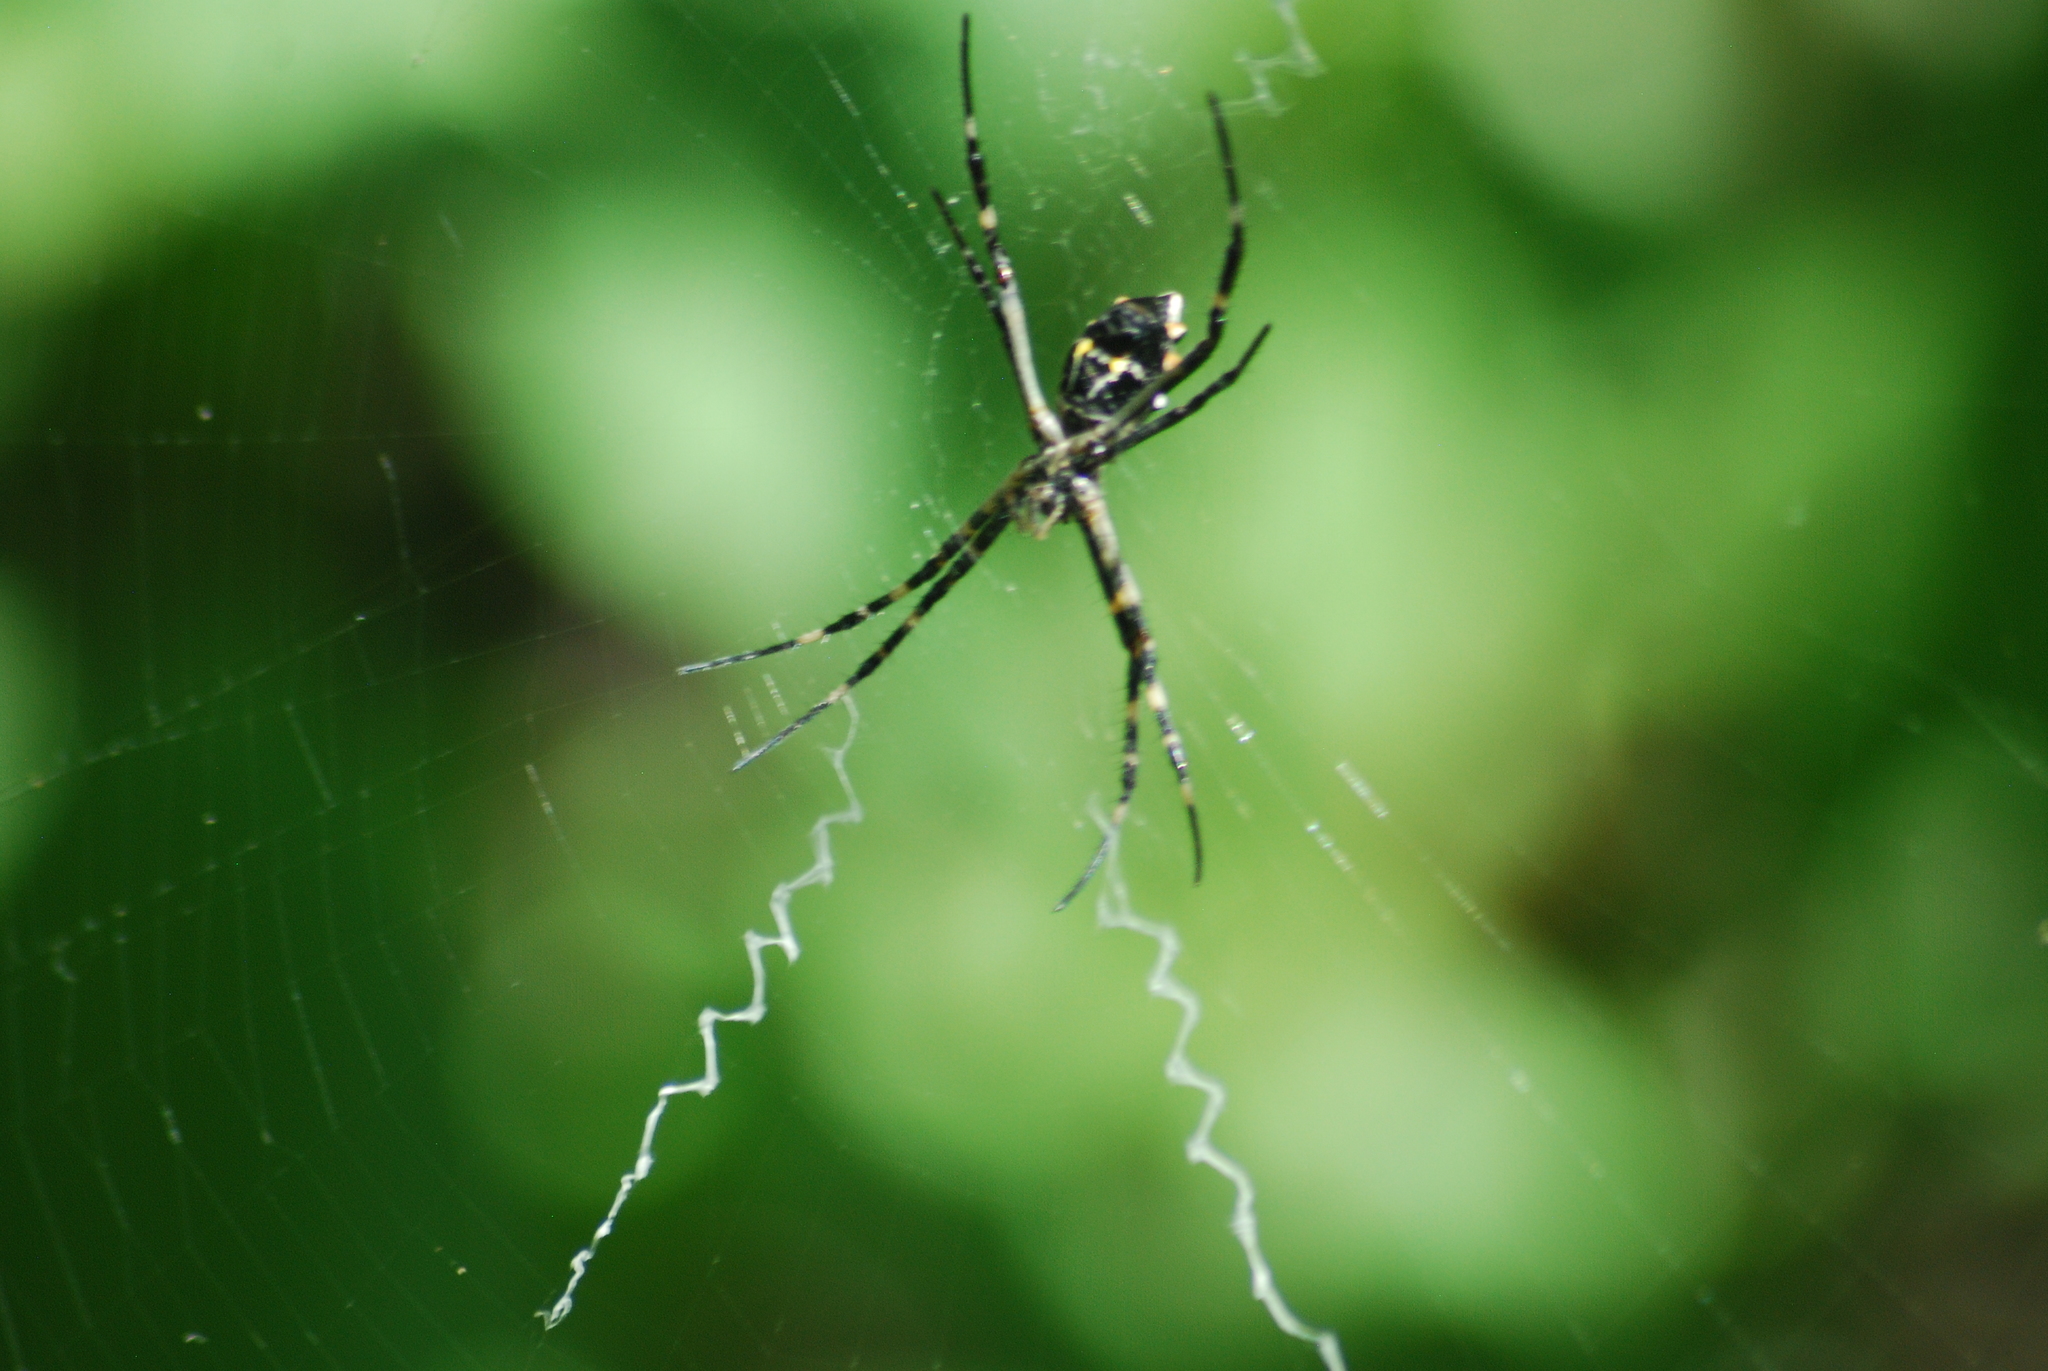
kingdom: Animalia
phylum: Arthropoda
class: Arachnida
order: Araneae
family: Araneidae
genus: Argiope
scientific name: Argiope argentata
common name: Orb weavers
